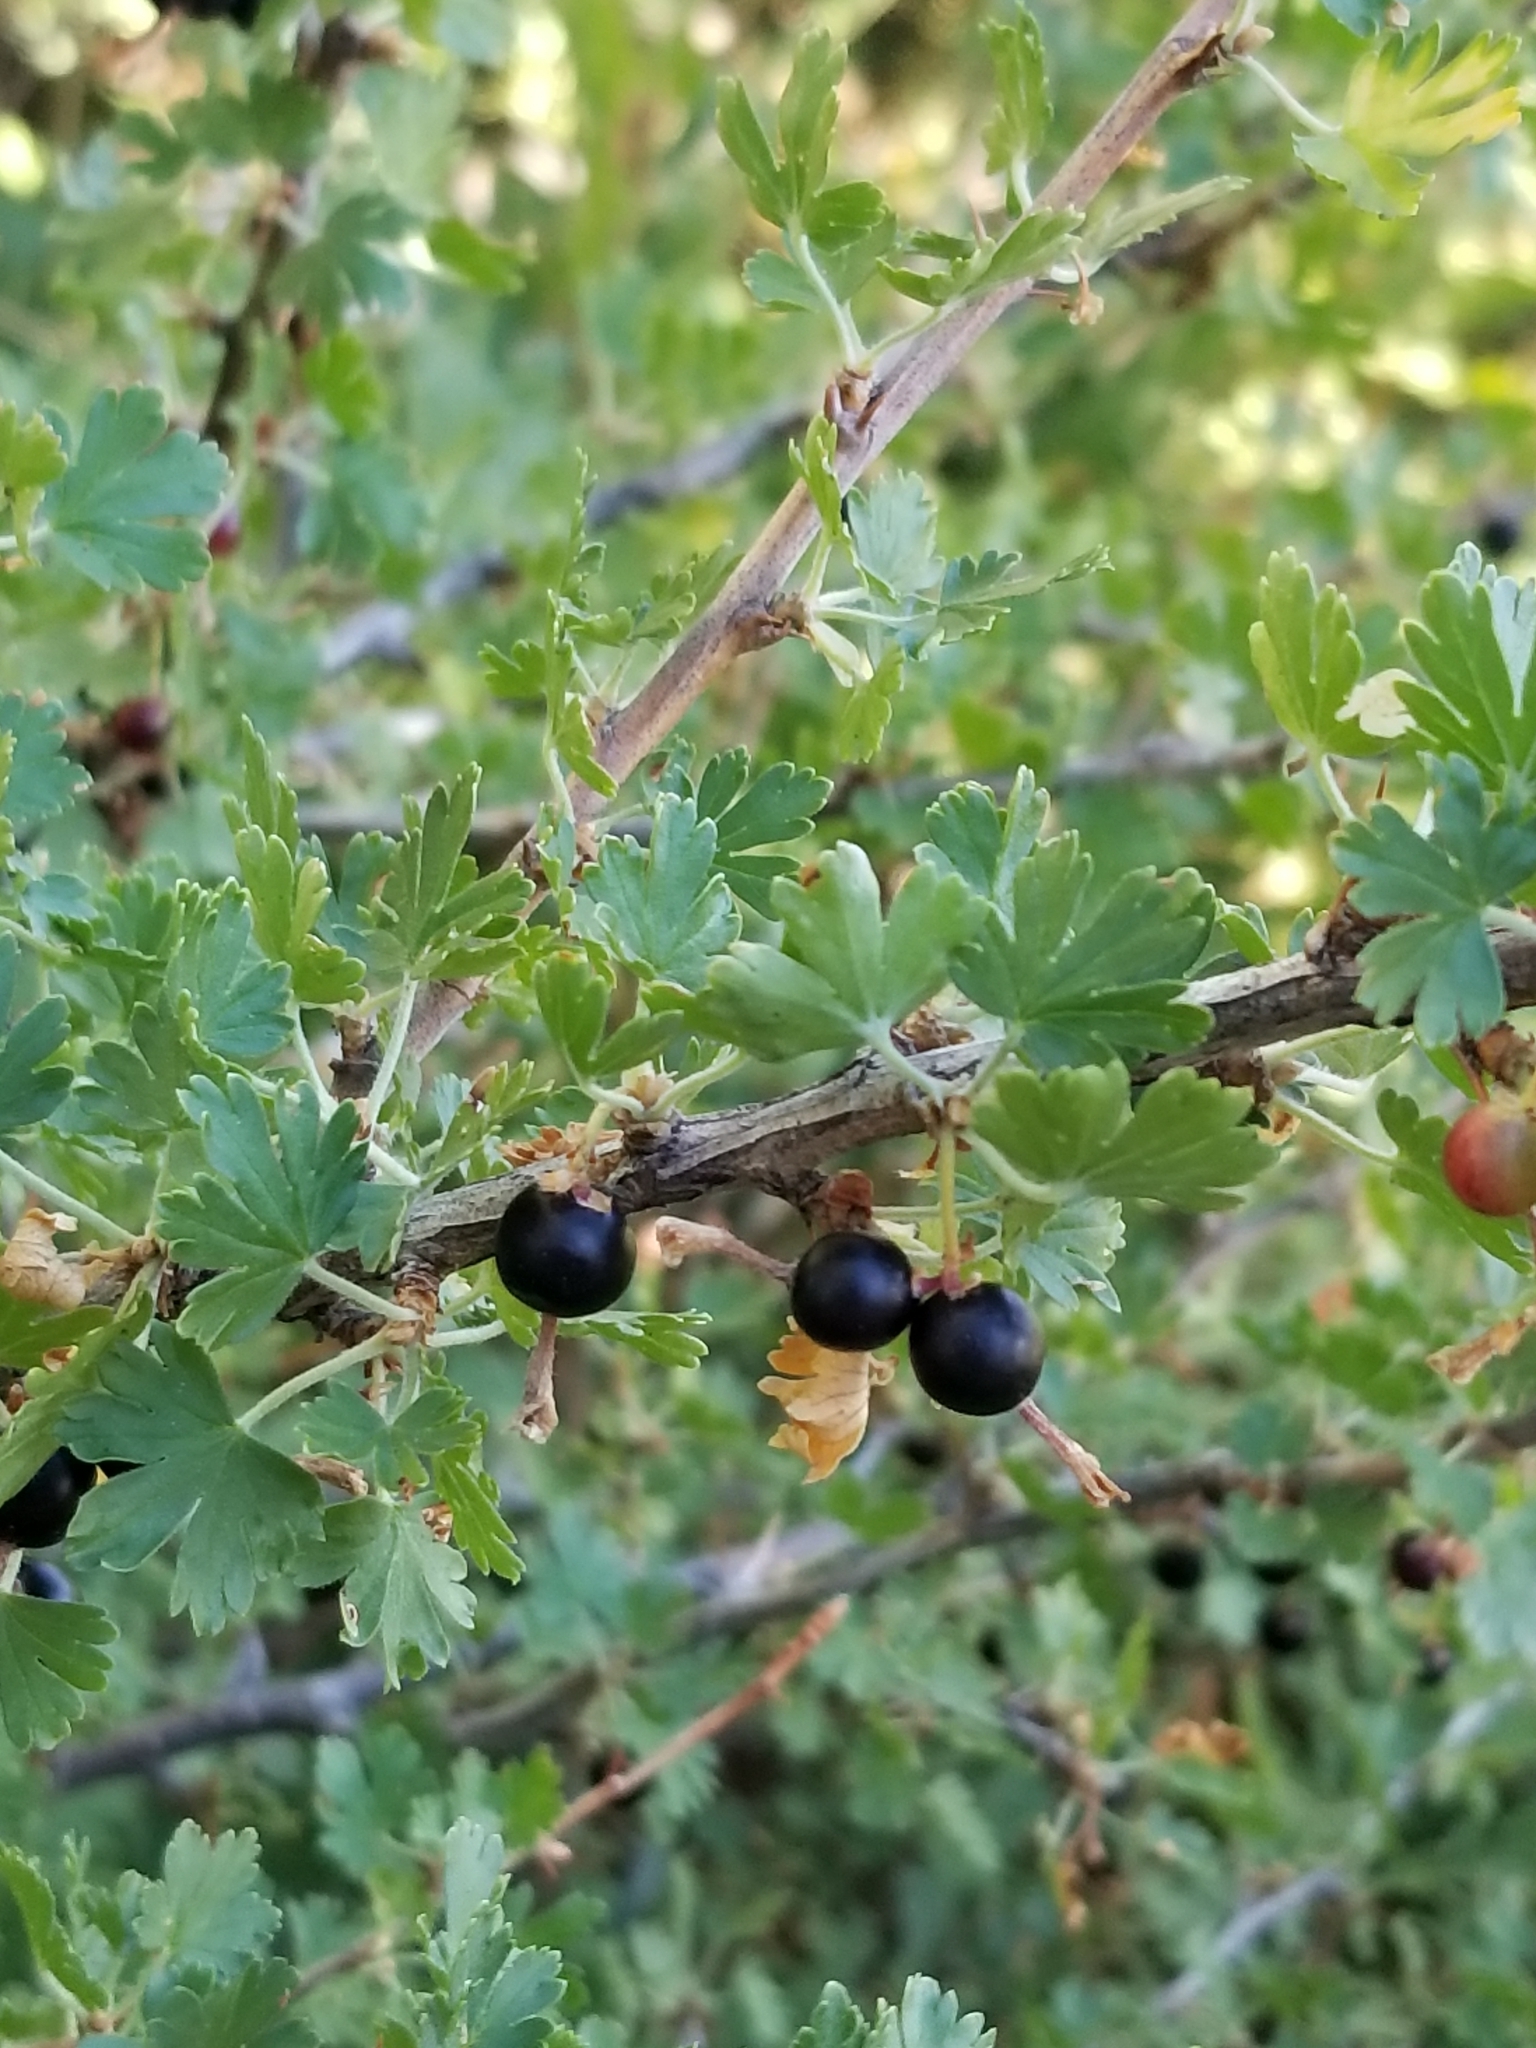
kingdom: Plantae
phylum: Tracheophyta
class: Magnoliopsida
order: Saxifragales
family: Grossulariaceae
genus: Ribes
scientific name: Ribes montigenum
